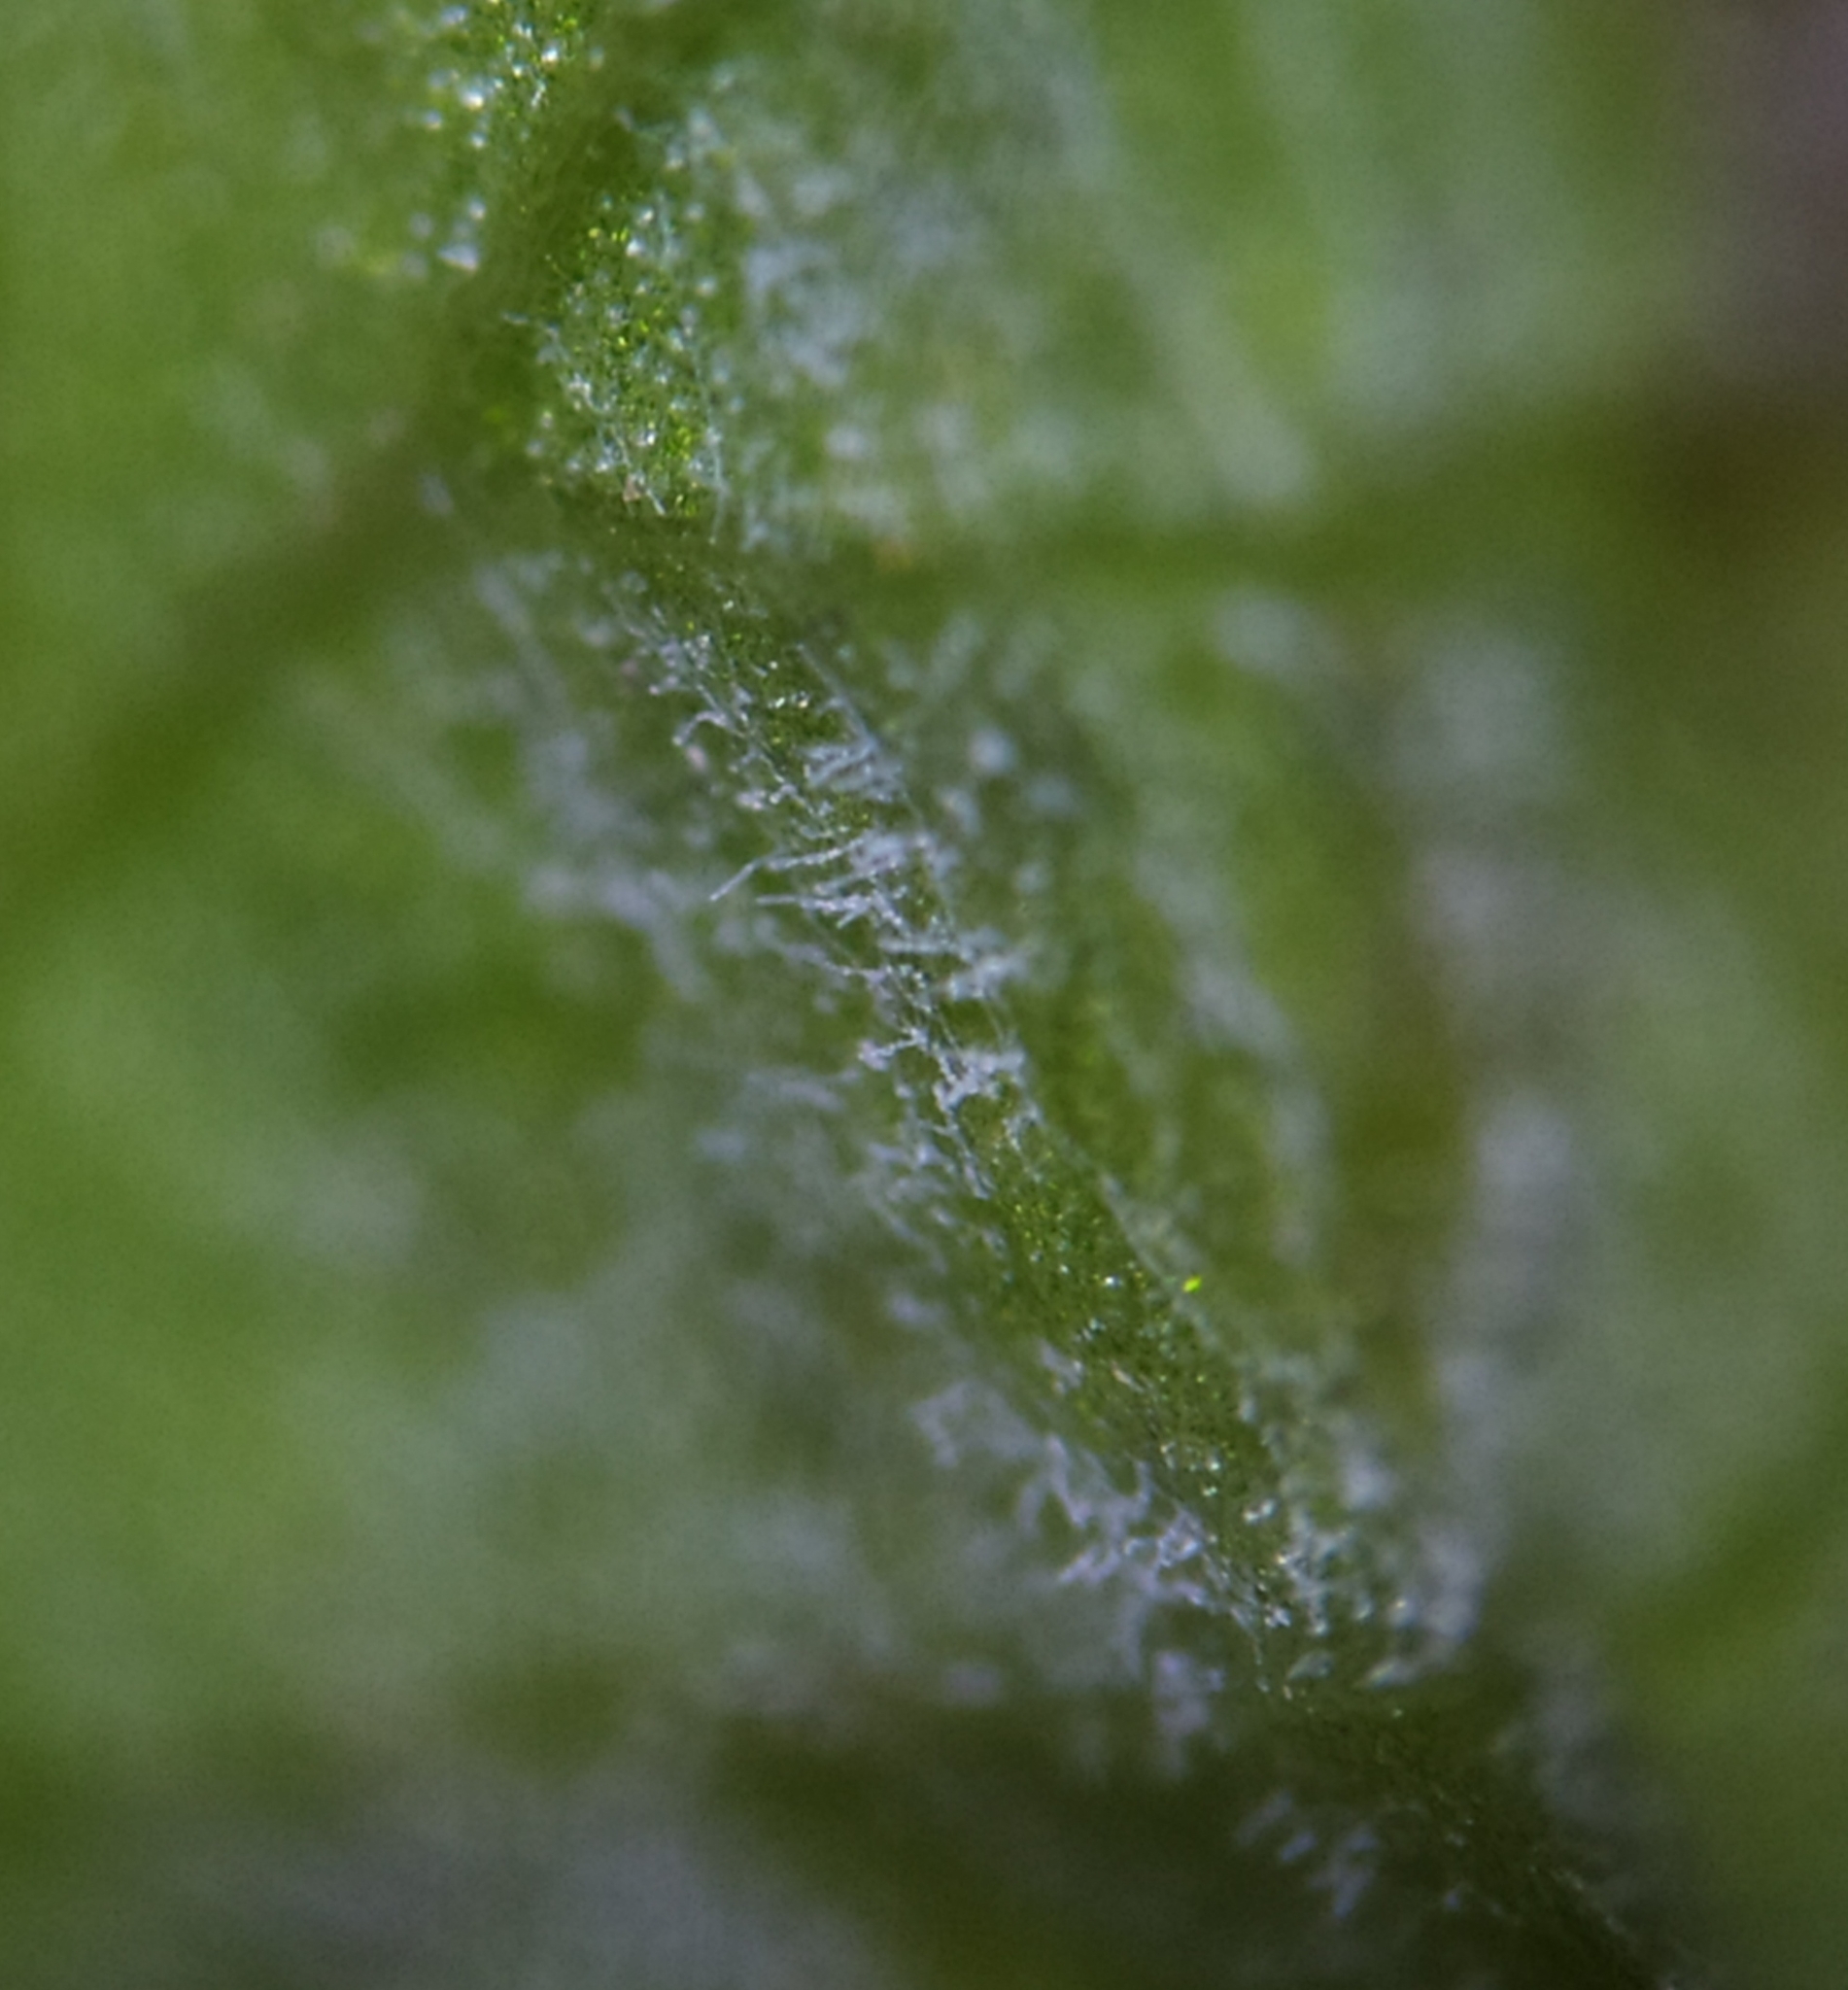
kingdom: Fungi
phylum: Ascomycota
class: Leotiomycetes
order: Helotiales
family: Erysiphaceae
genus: Golovinomyces
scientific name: Golovinomyces orontii
